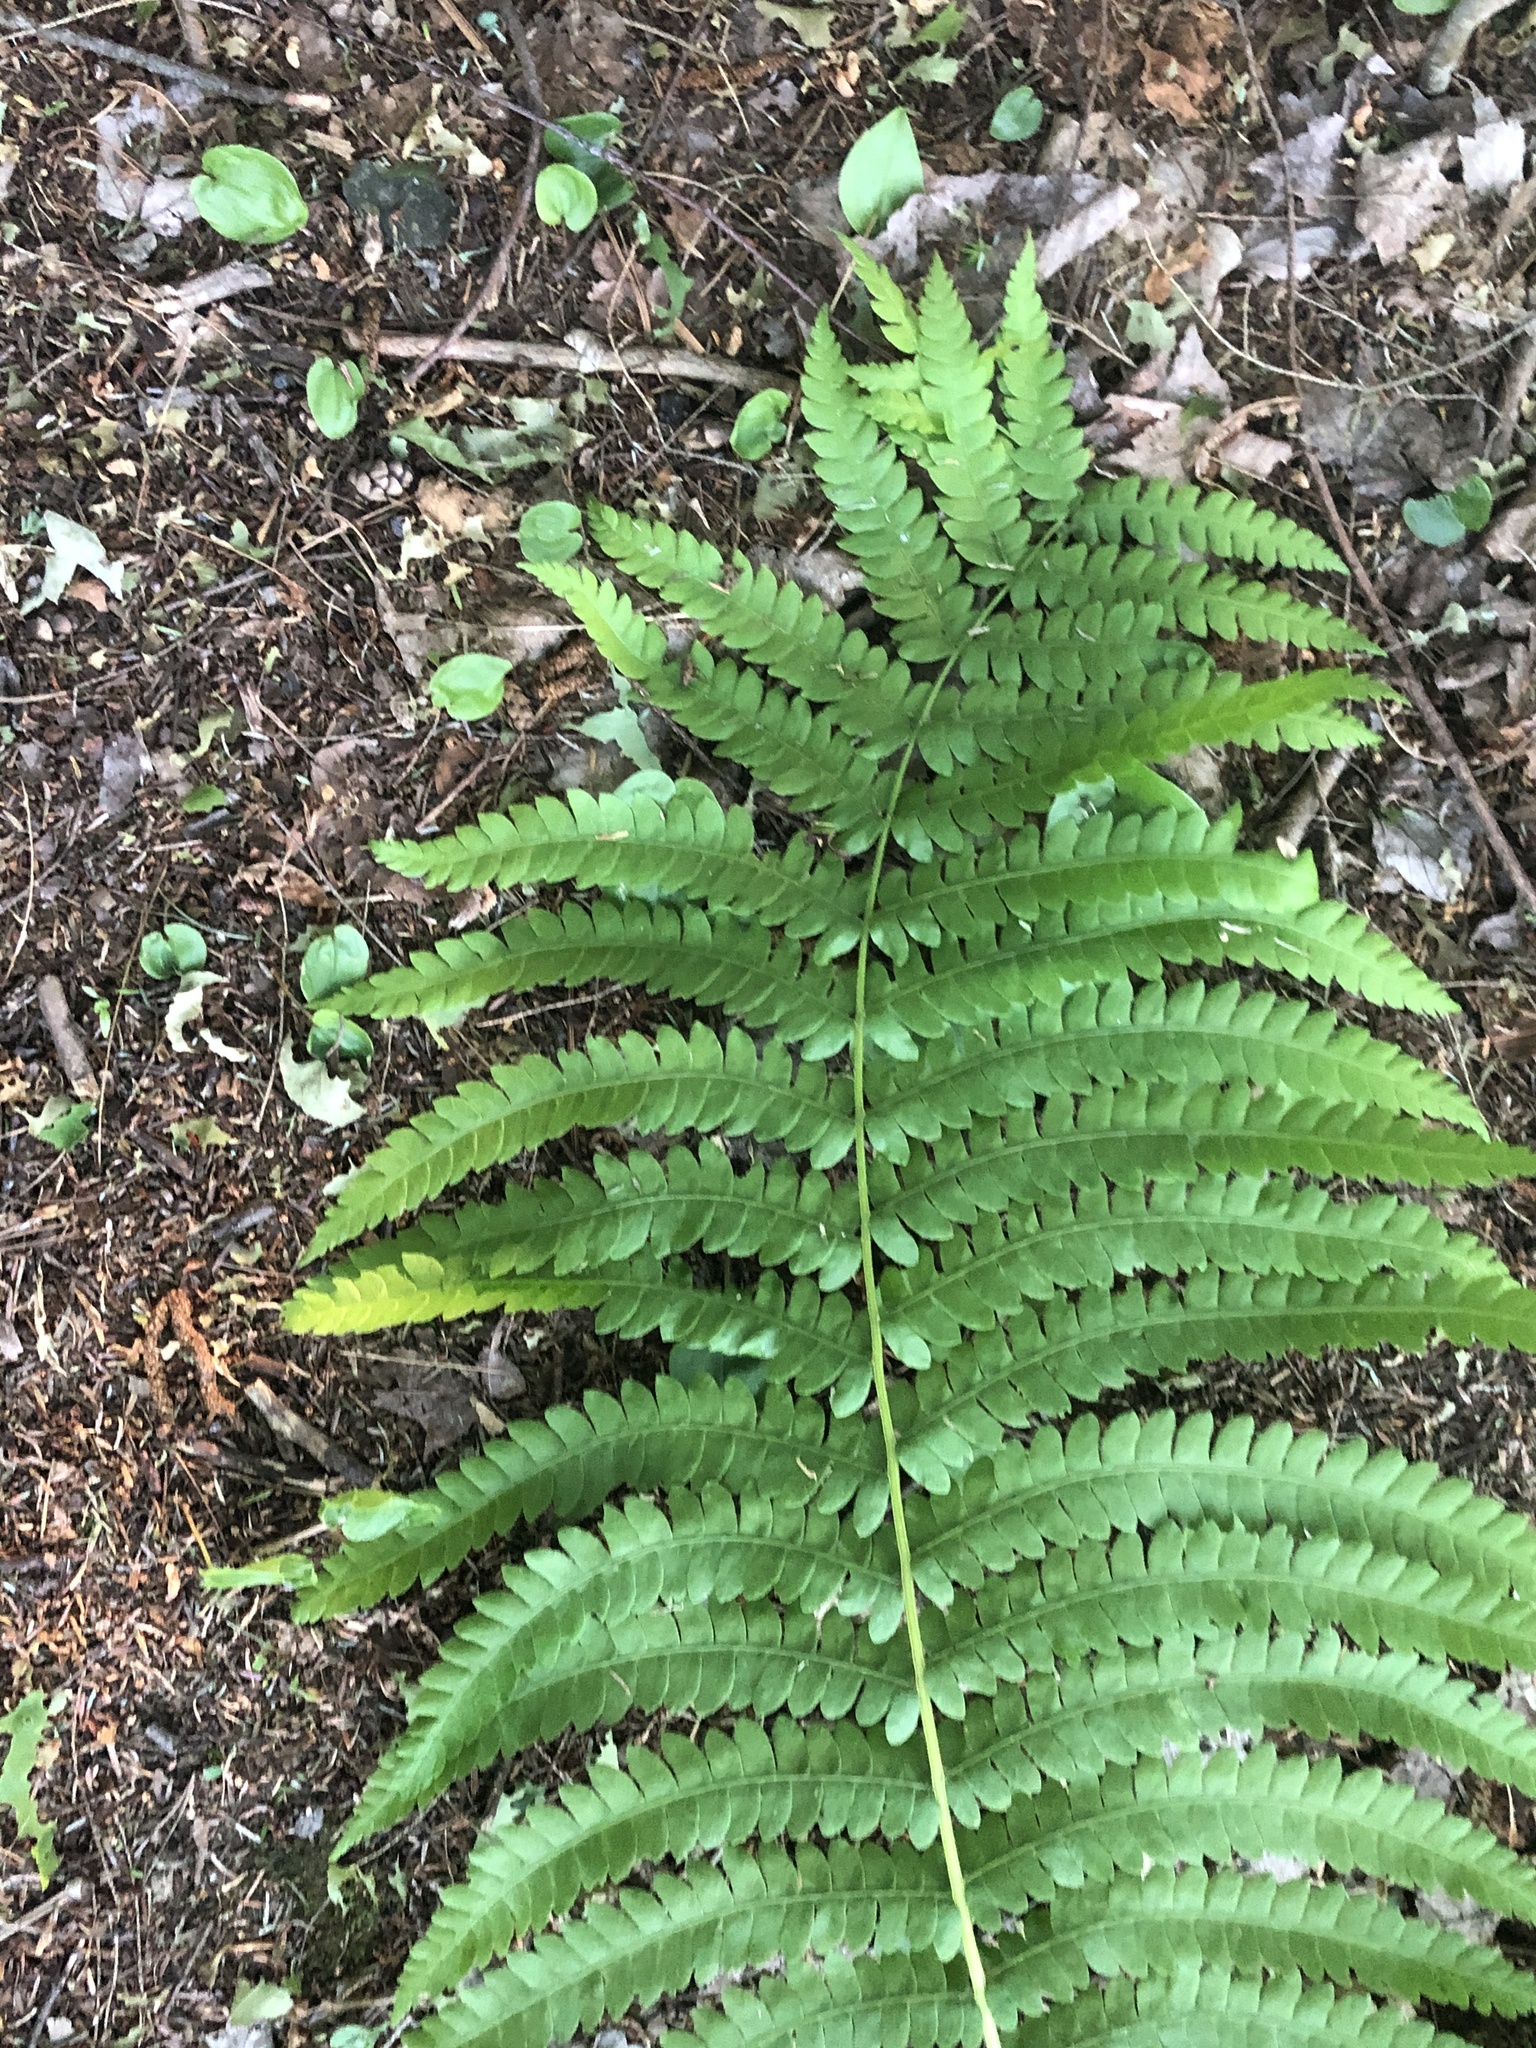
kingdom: Plantae
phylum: Tracheophyta
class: Polypodiopsida
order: Polypodiales
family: Onocleaceae
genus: Matteuccia
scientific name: Matteuccia struthiopteris
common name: Ostrich fern
